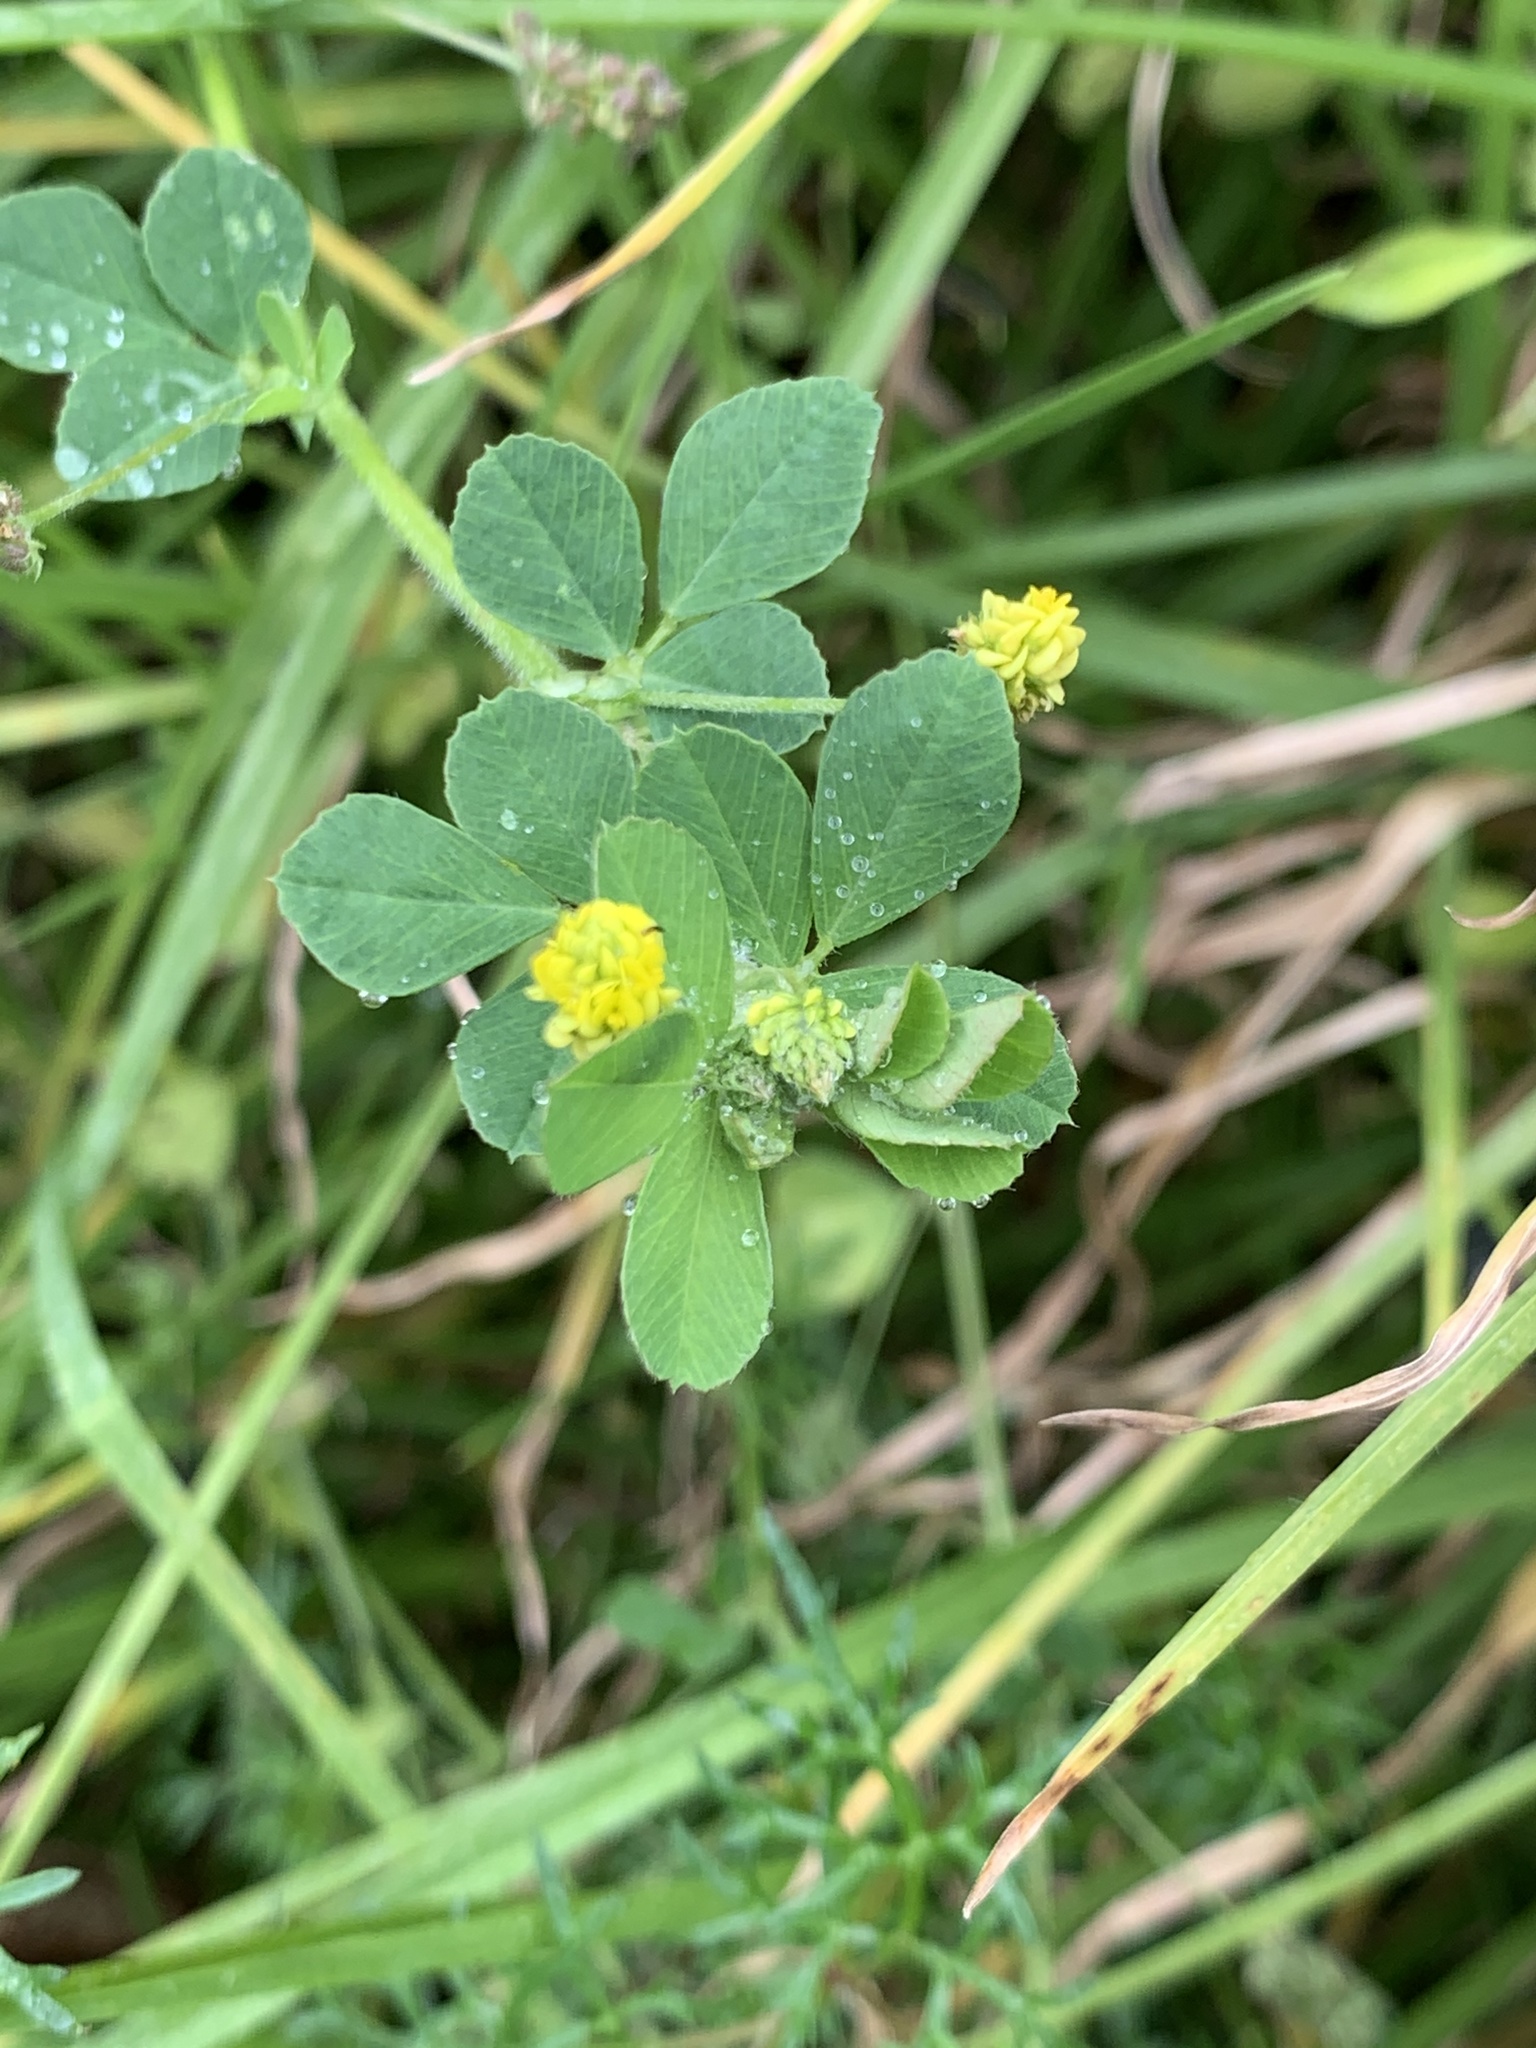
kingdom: Plantae
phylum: Tracheophyta
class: Magnoliopsida
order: Fabales
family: Fabaceae
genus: Medicago
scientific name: Medicago lupulina
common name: Black medick
